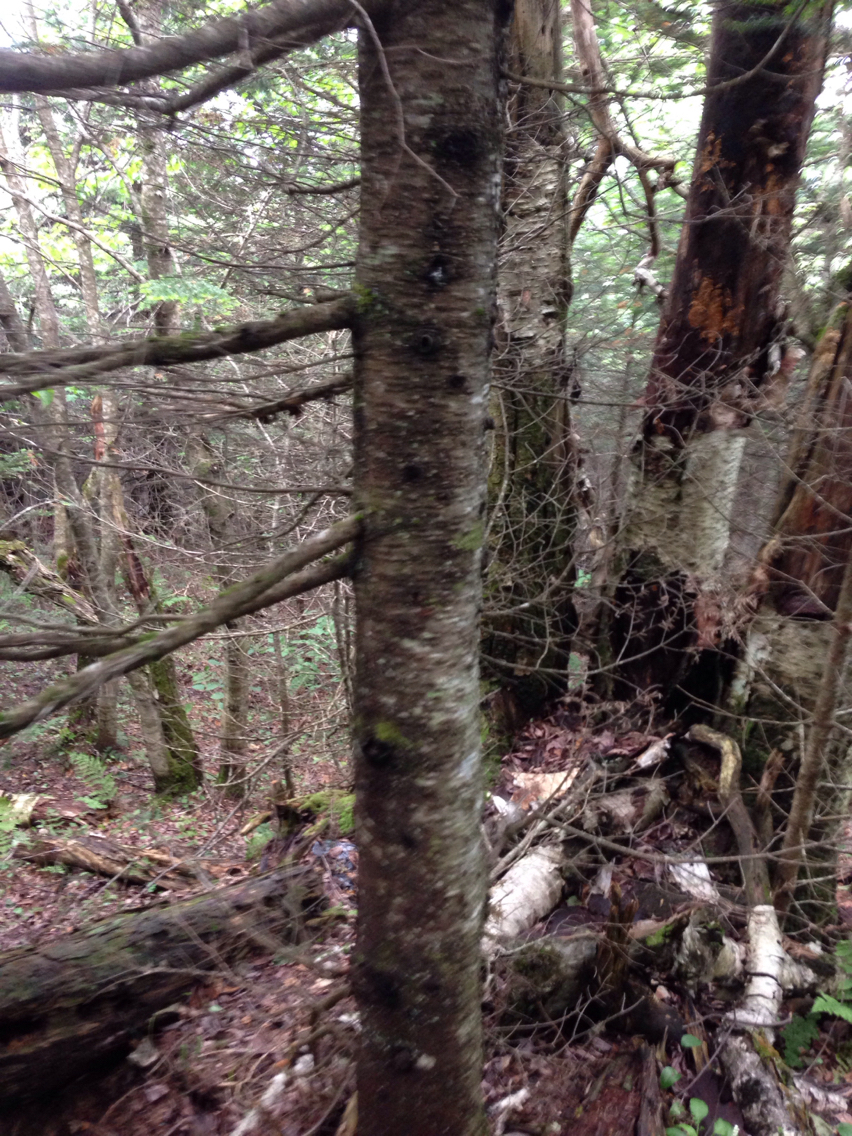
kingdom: Plantae
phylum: Tracheophyta
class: Pinopsida
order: Pinales
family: Pinaceae
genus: Abies
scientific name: Abies balsamea
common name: Balsam fir
